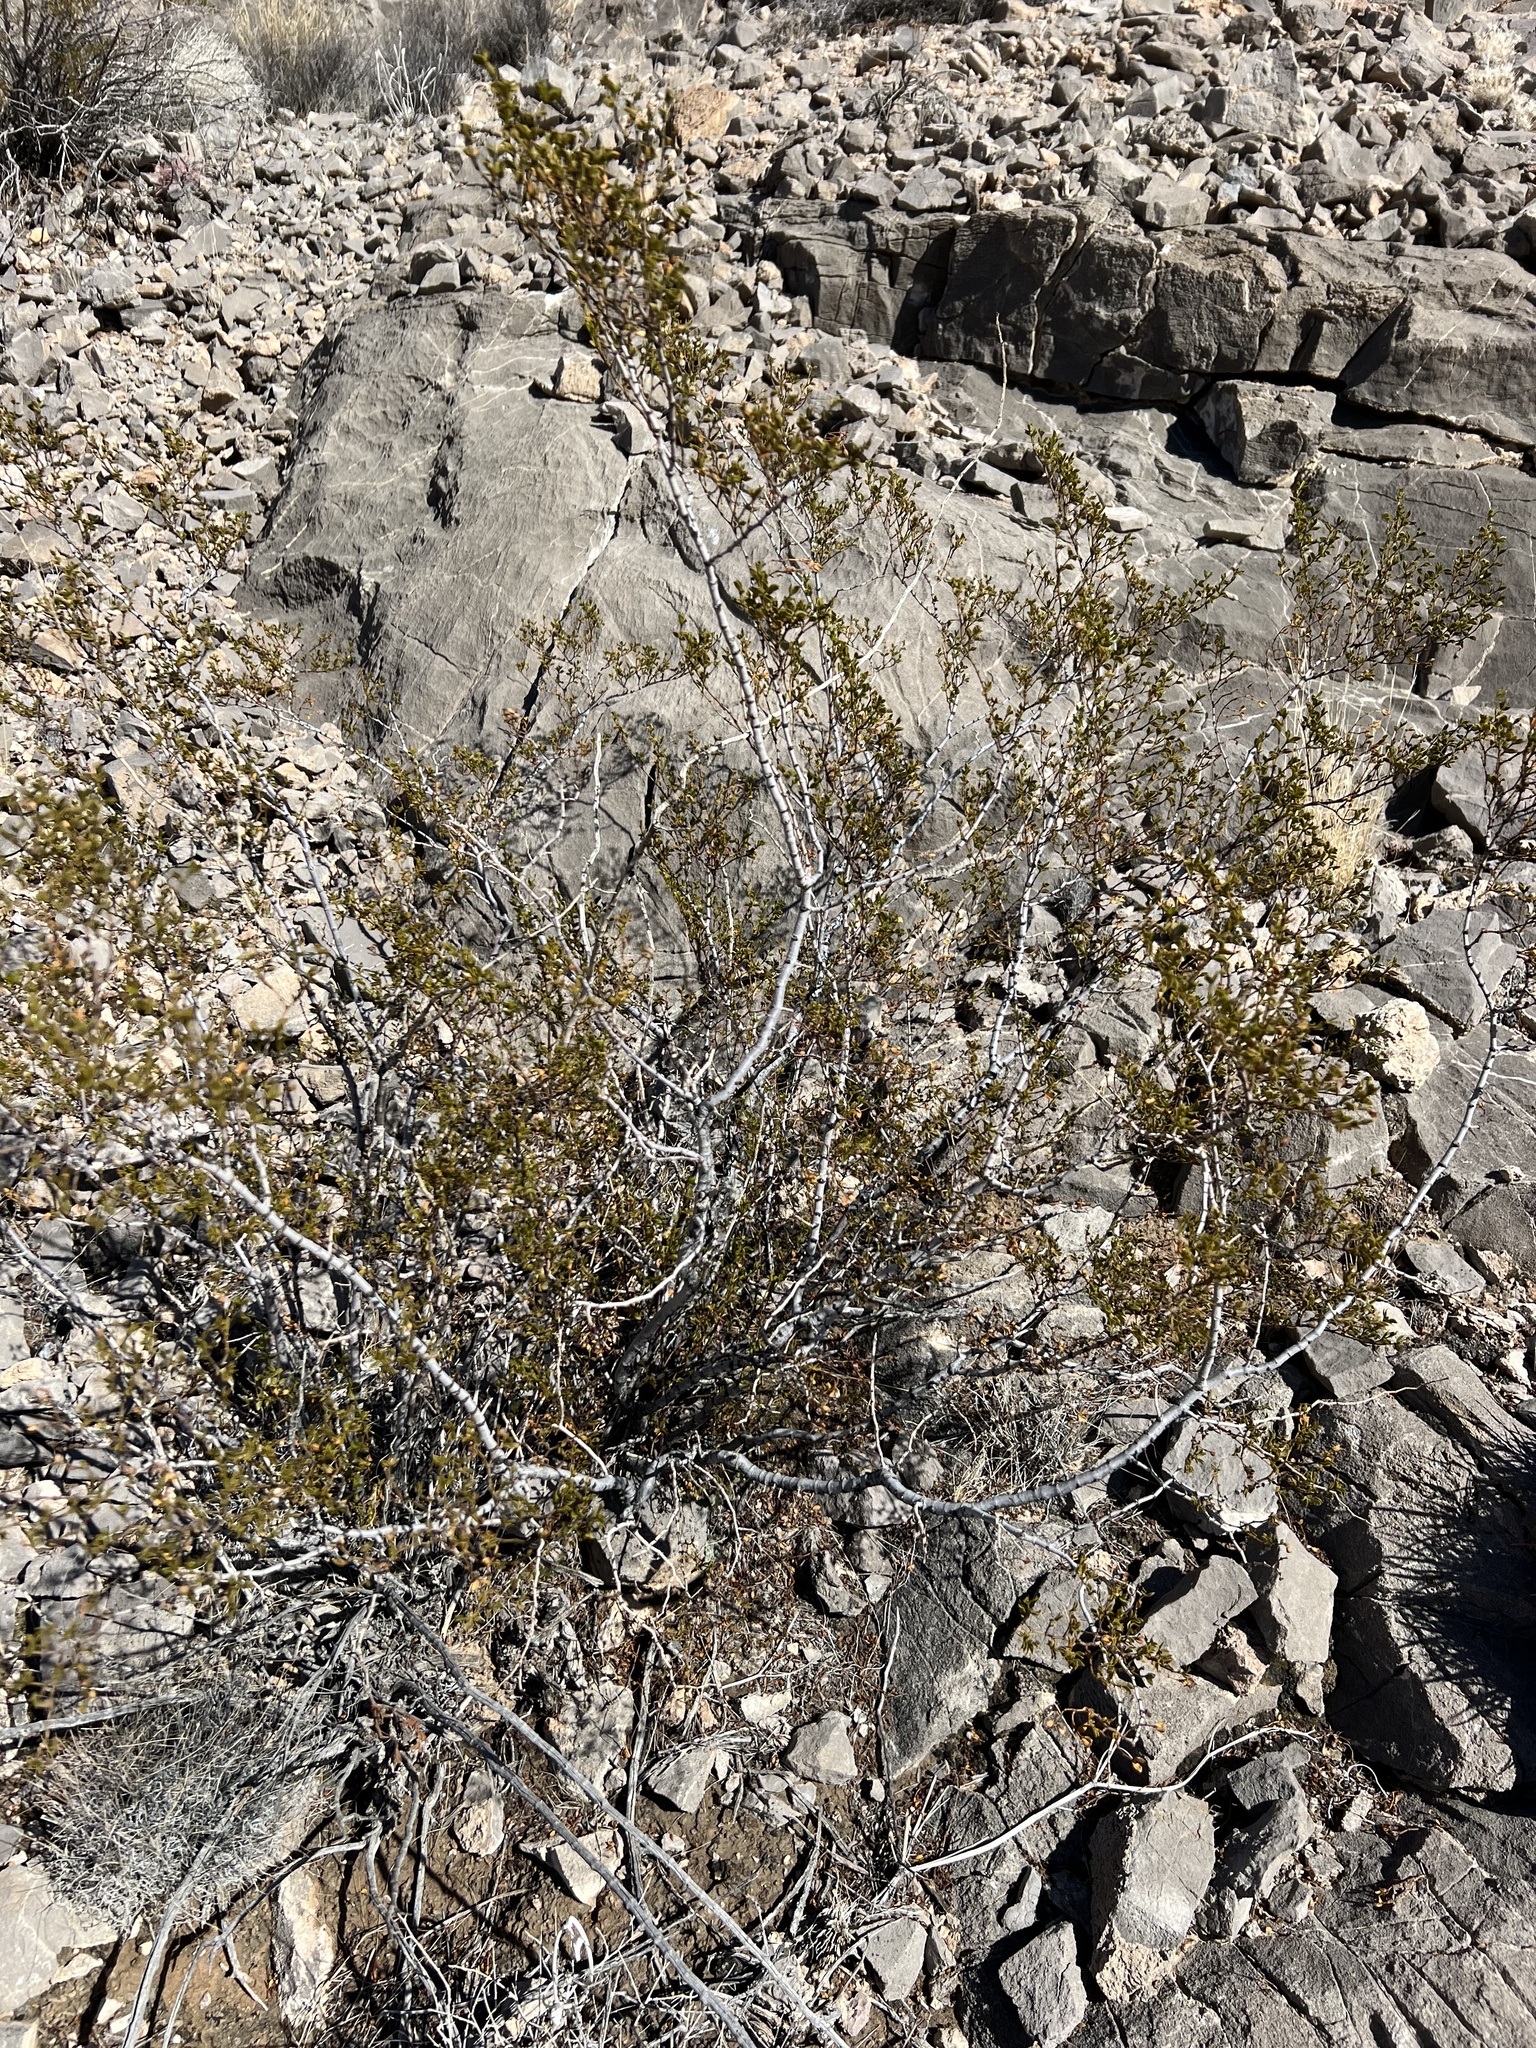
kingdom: Plantae
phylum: Tracheophyta
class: Magnoliopsida
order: Zygophyllales
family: Zygophyllaceae
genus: Larrea
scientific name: Larrea tridentata
